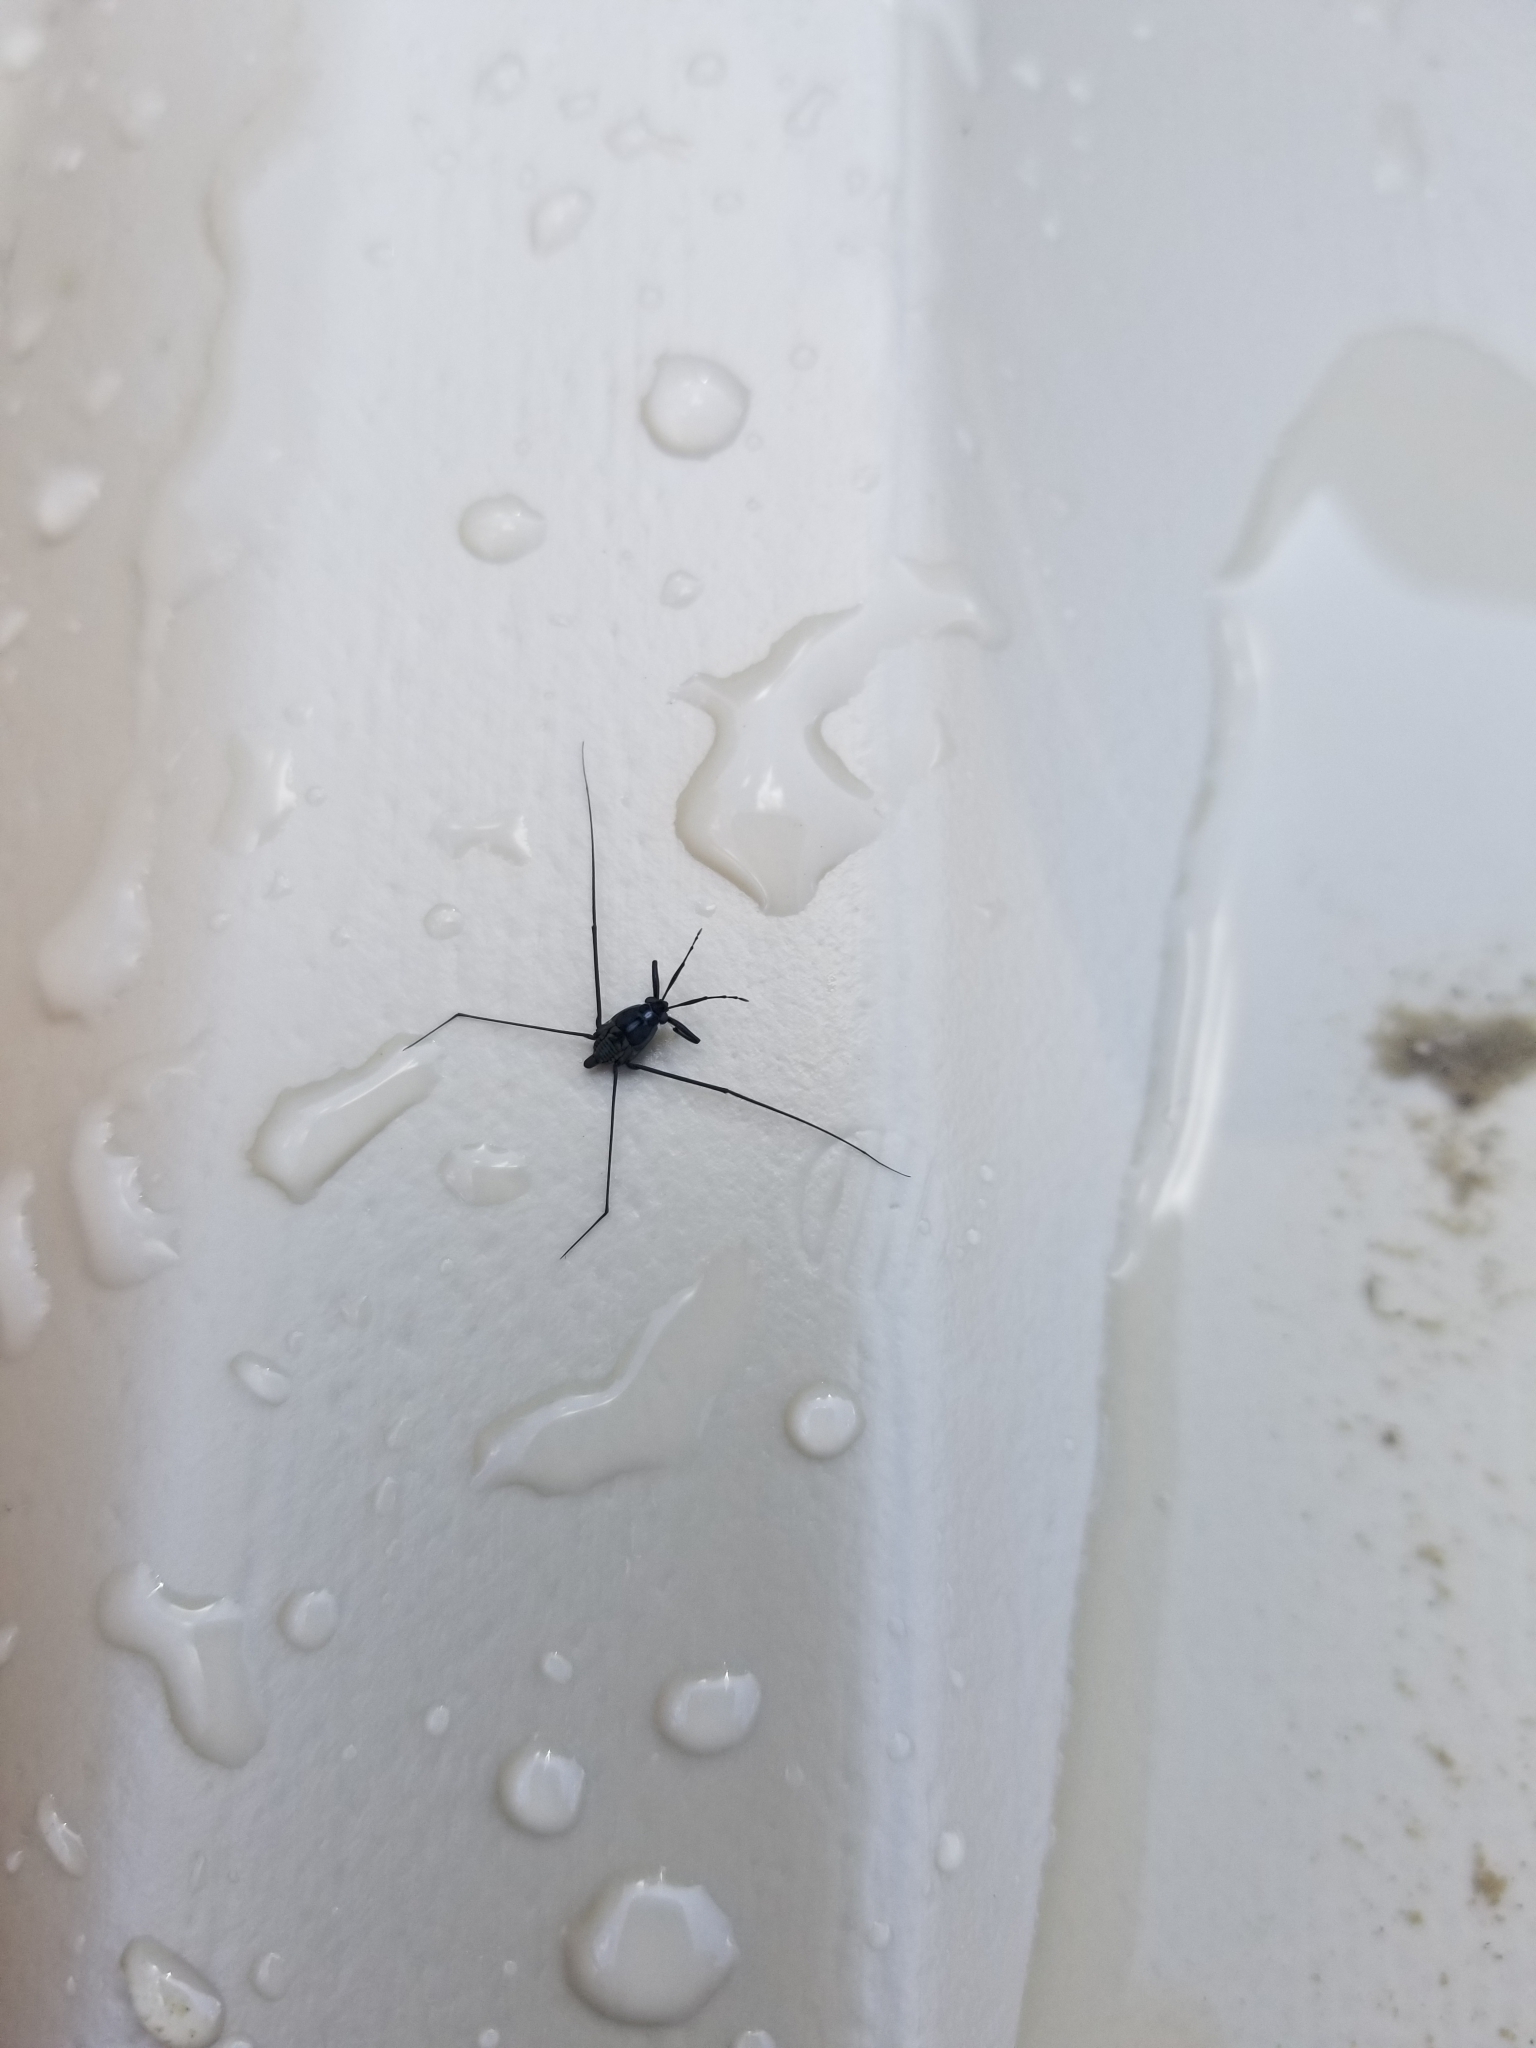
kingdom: Animalia
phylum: Arthropoda
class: Insecta
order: Hemiptera
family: Gerridae
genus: Metrobates
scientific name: Metrobates hesperius
